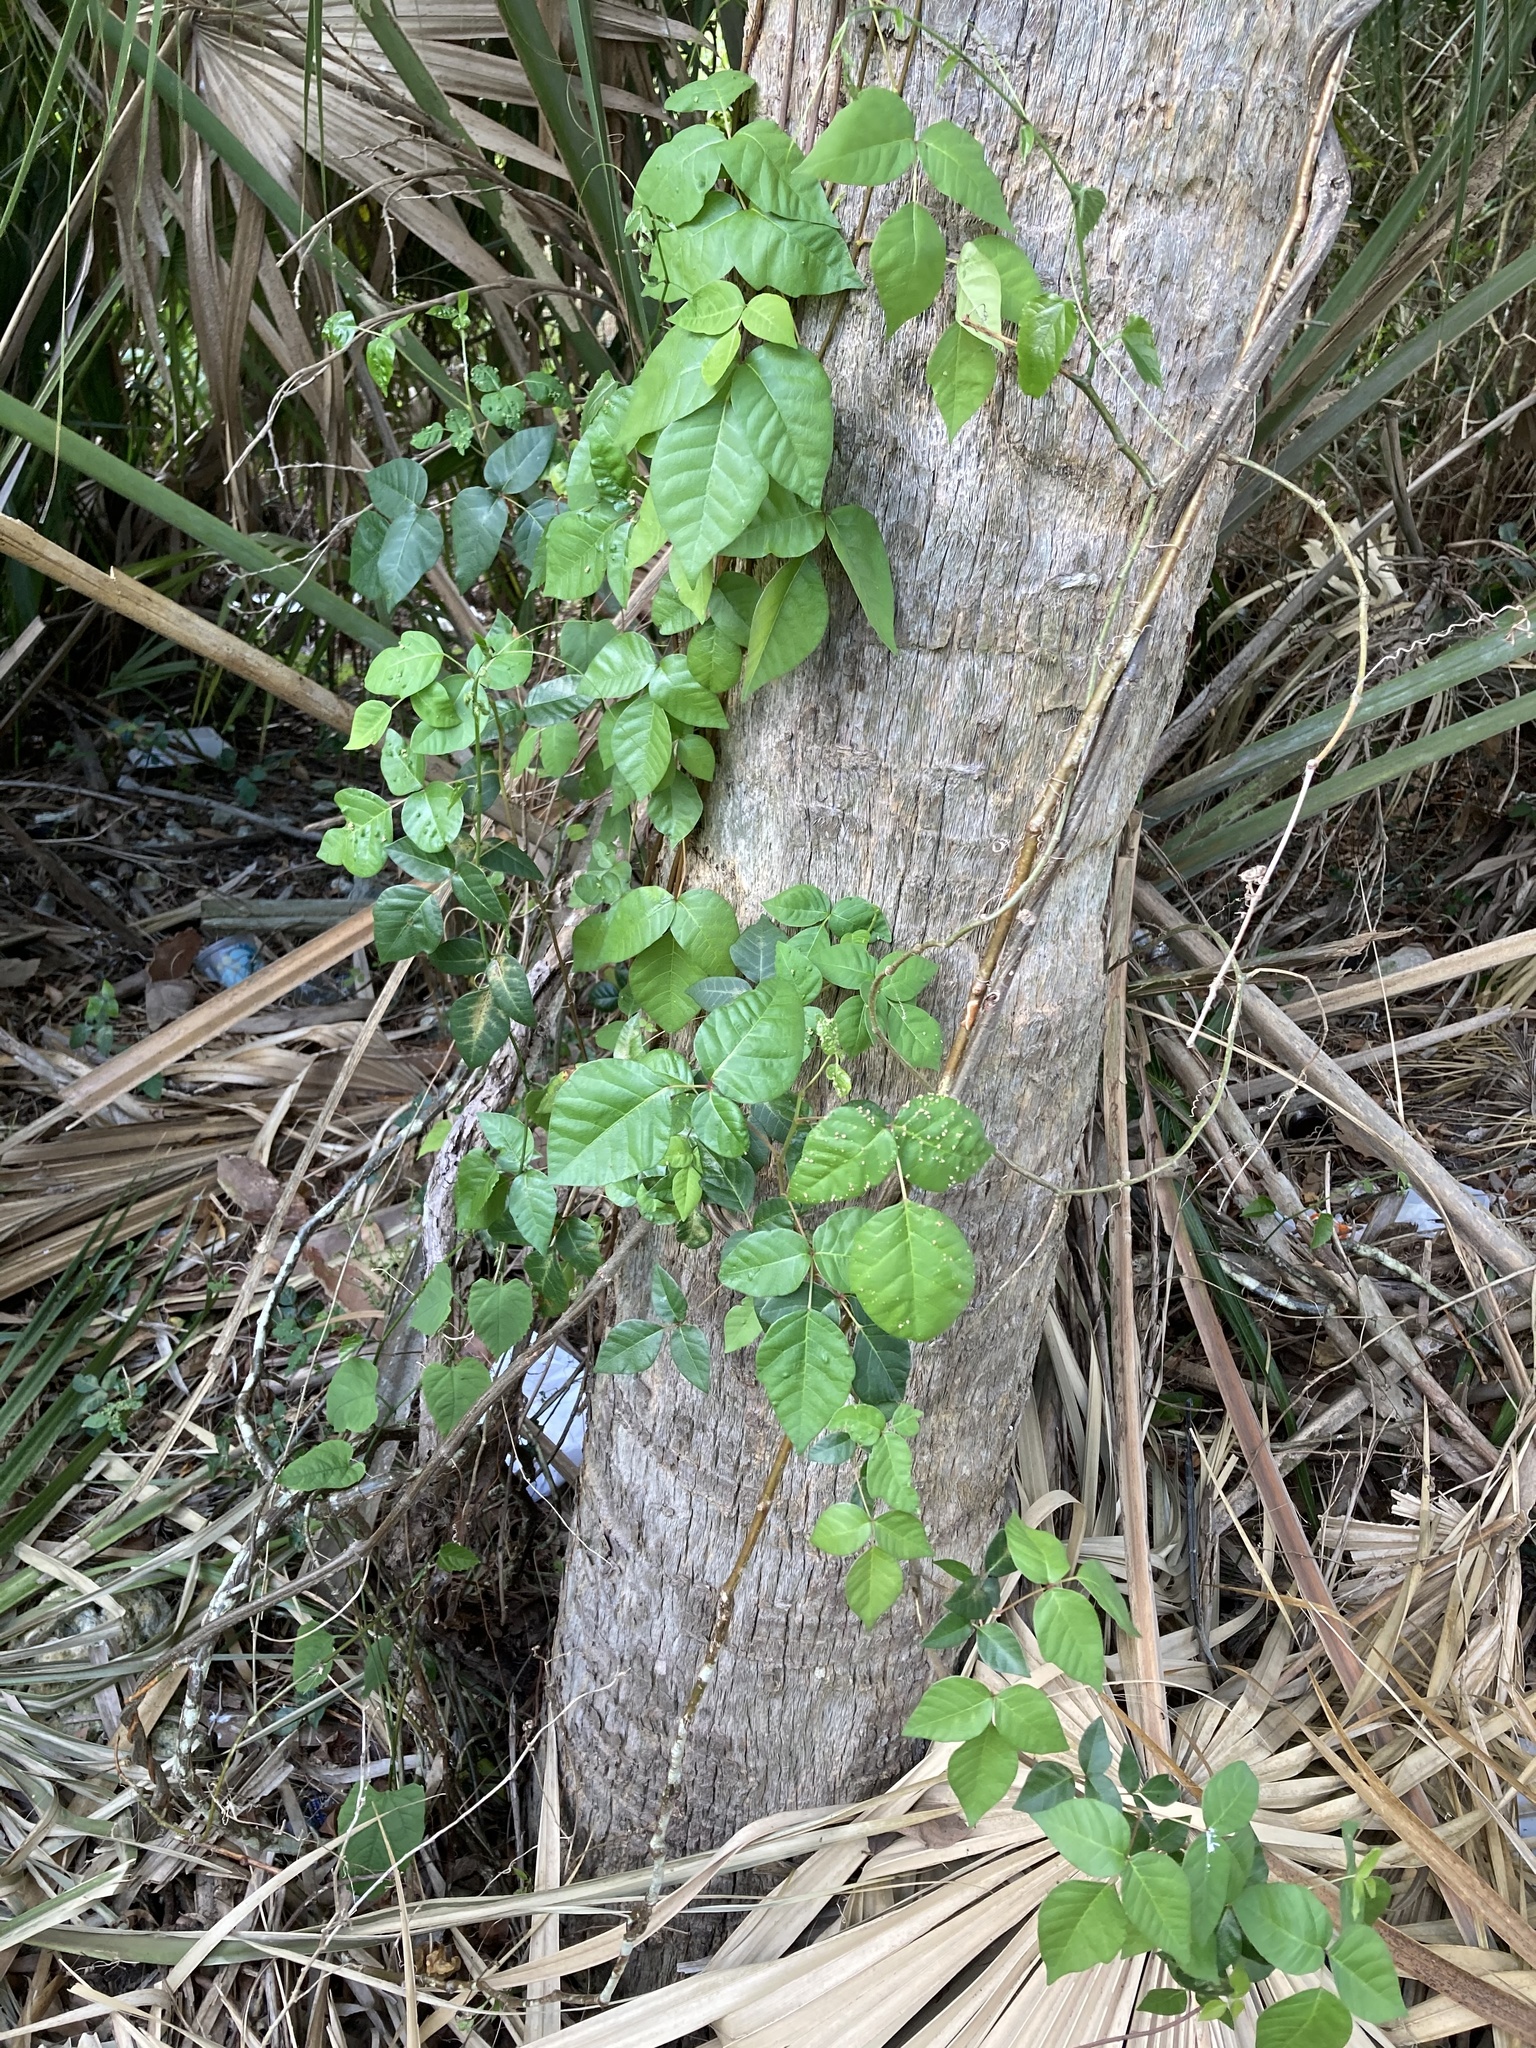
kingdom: Plantae
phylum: Tracheophyta
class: Magnoliopsida
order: Sapindales
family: Anacardiaceae
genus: Toxicodendron
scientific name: Toxicodendron radicans
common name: Poison ivy
